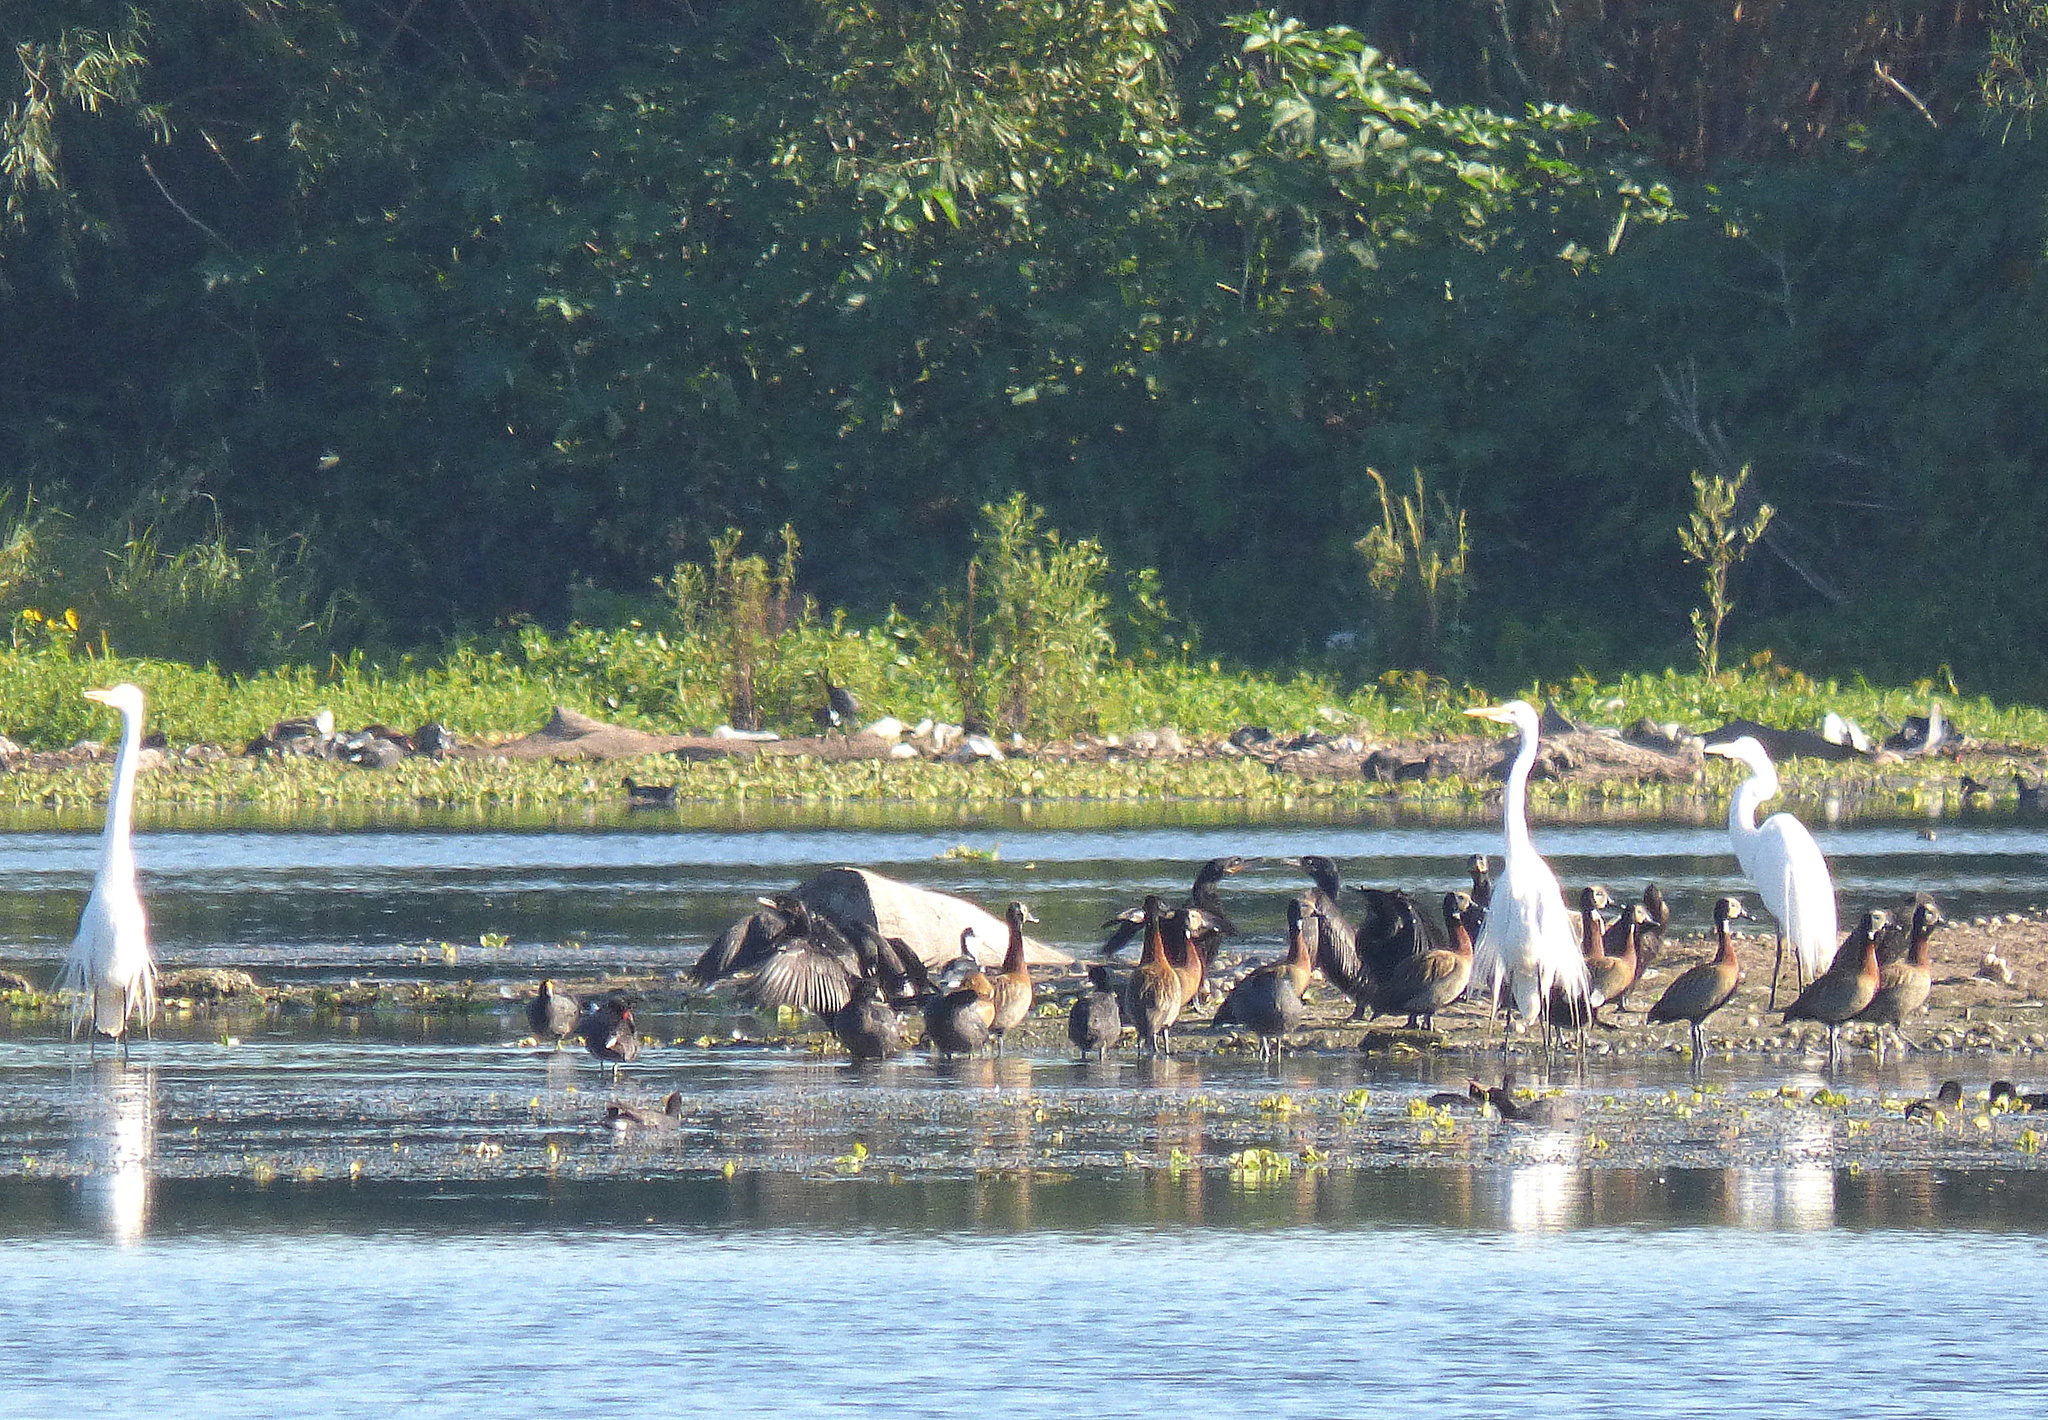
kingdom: Animalia
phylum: Chordata
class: Aves
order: Anseriformes
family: Anatidae
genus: Dendrocygna
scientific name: Dendrocygna viduata
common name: White-faced whistling duck
